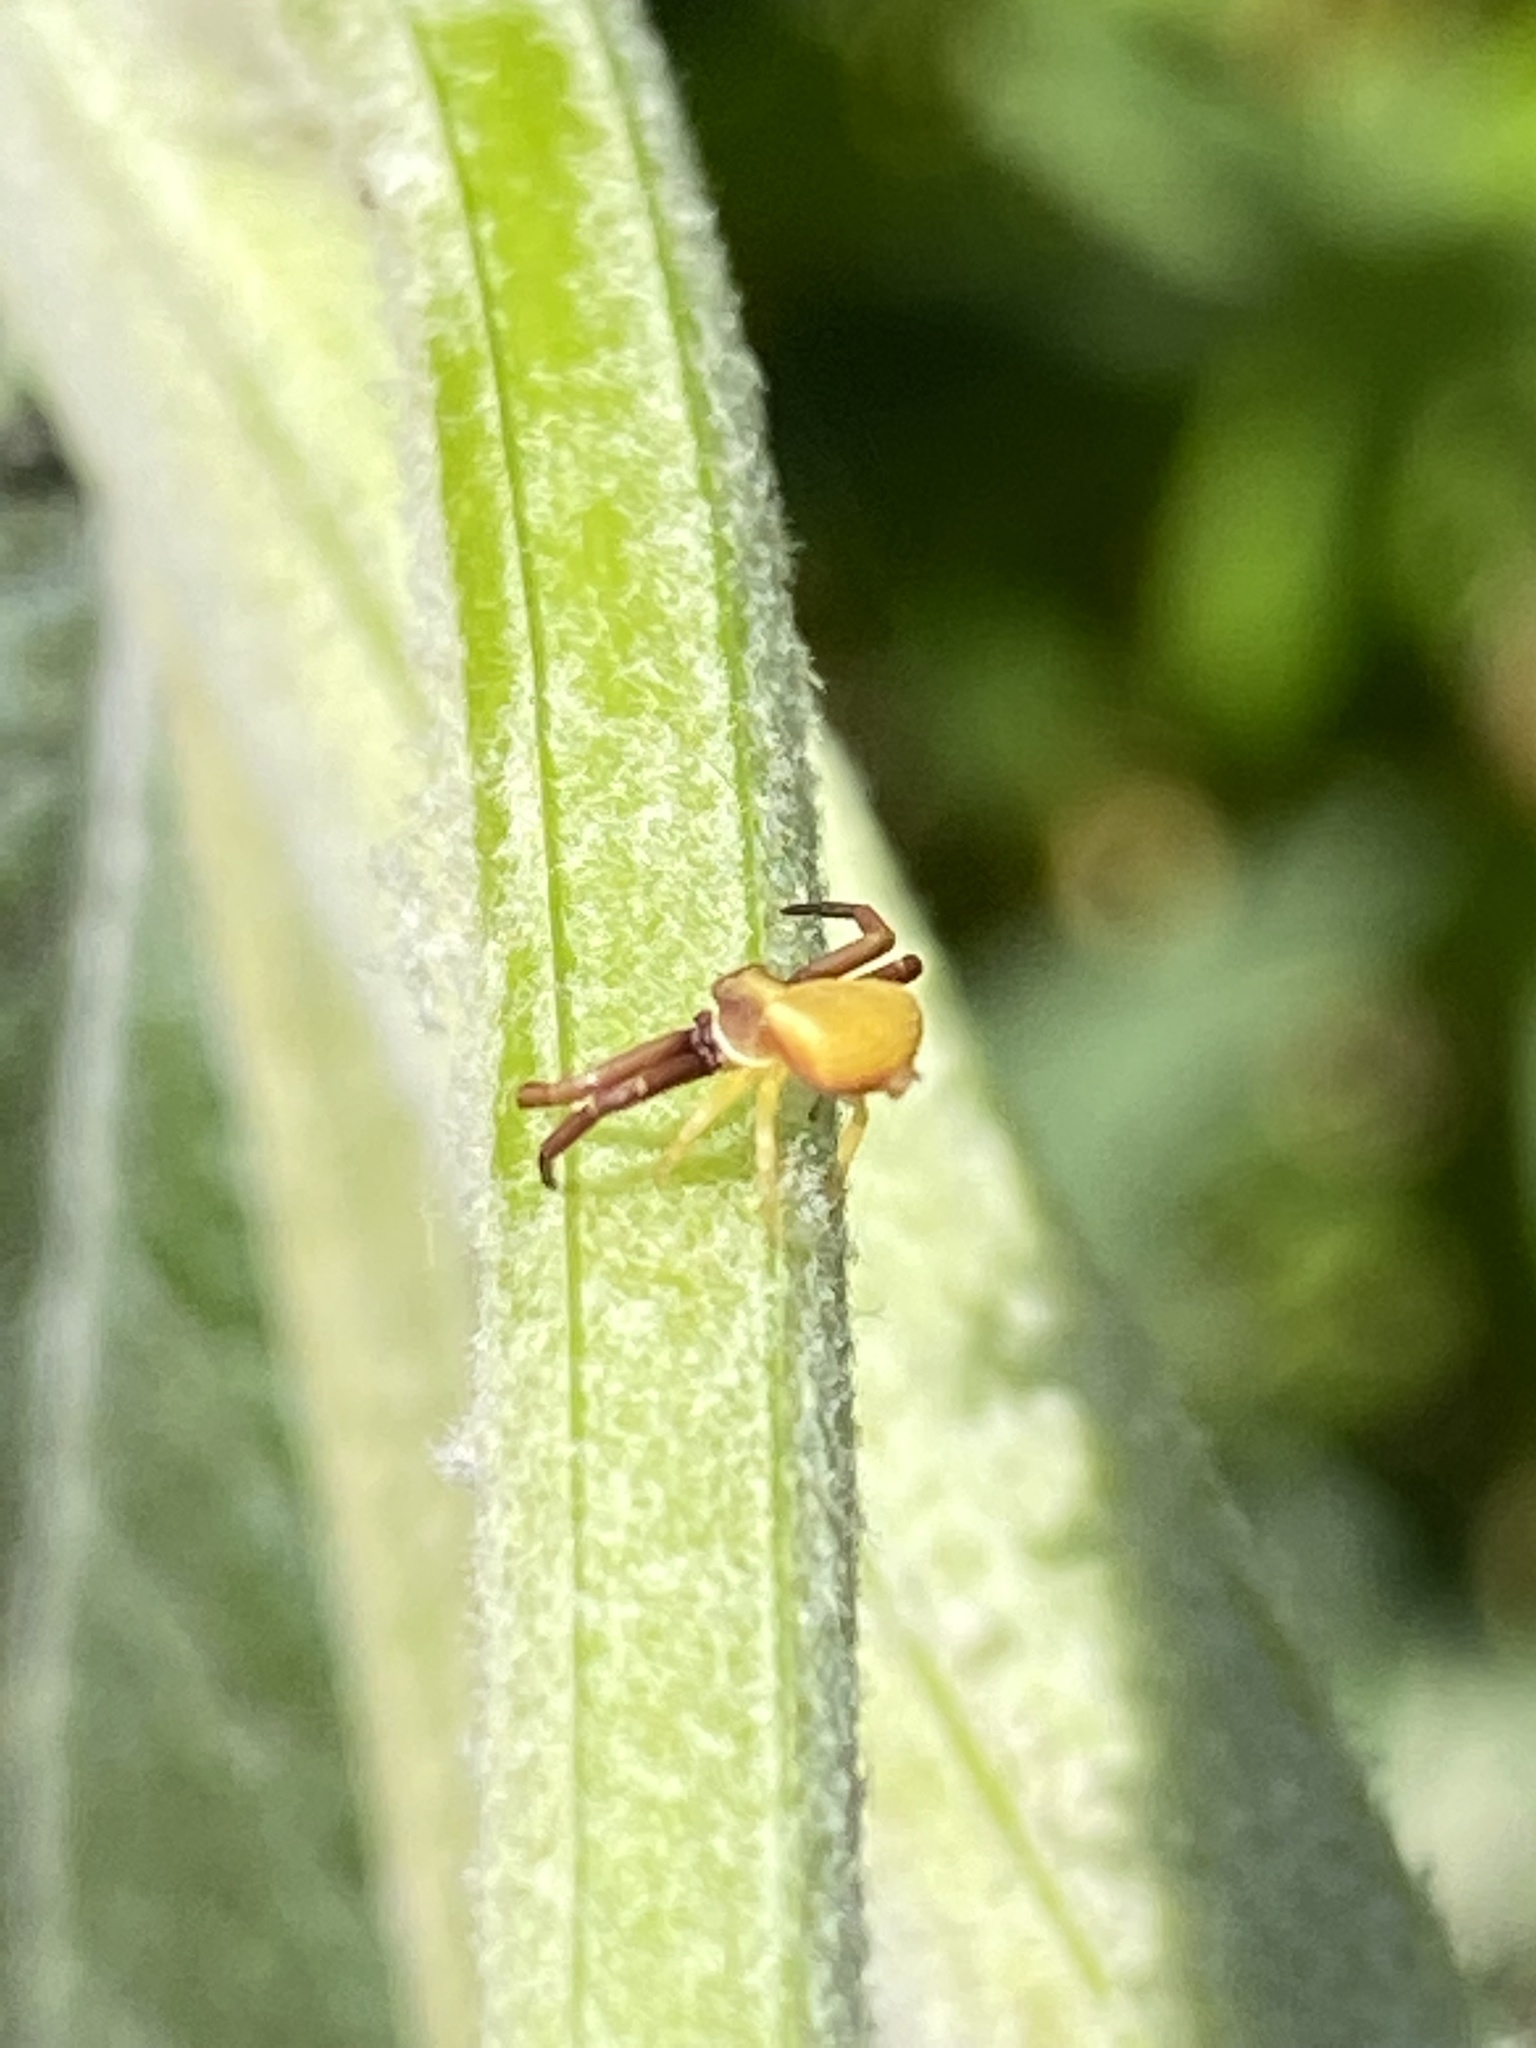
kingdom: Animalia
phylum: Arthropoda
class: Arachnida
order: Araneae
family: Thomisidae
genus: Misumenoides
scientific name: Misumenoides formosipes
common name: White-banded crab spider
